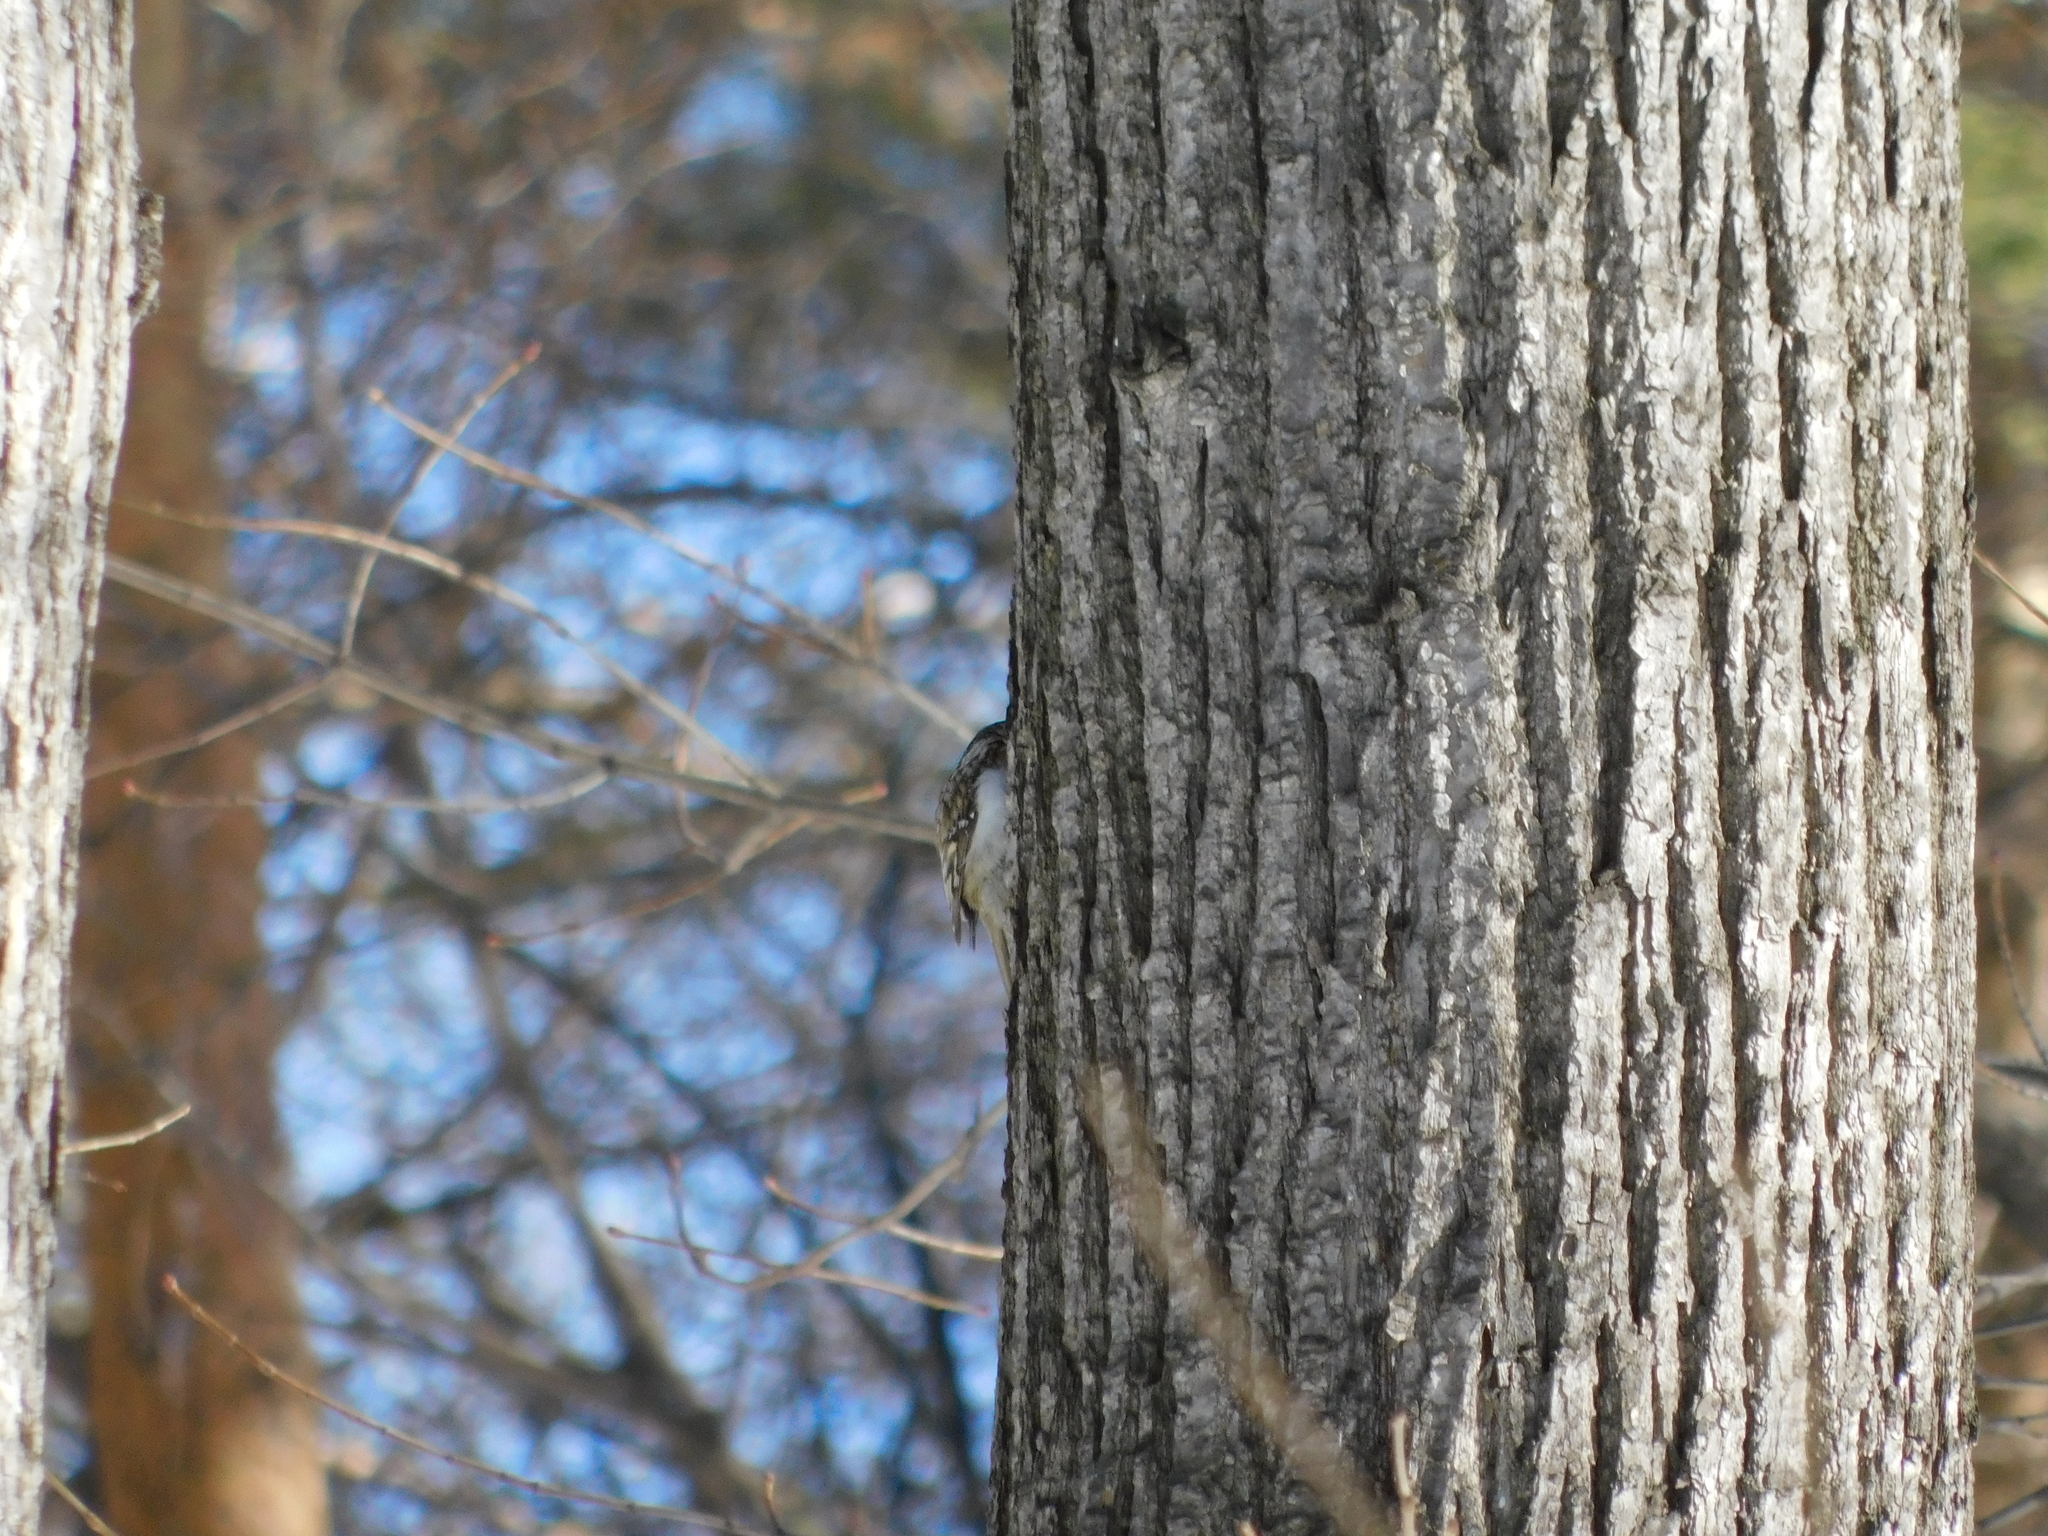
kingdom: Animalia
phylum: Chordata
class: Aves
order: Passeriformes
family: Certhiidae
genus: Certhia
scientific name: Certhia familiaris
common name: Eurasian treecreeper
